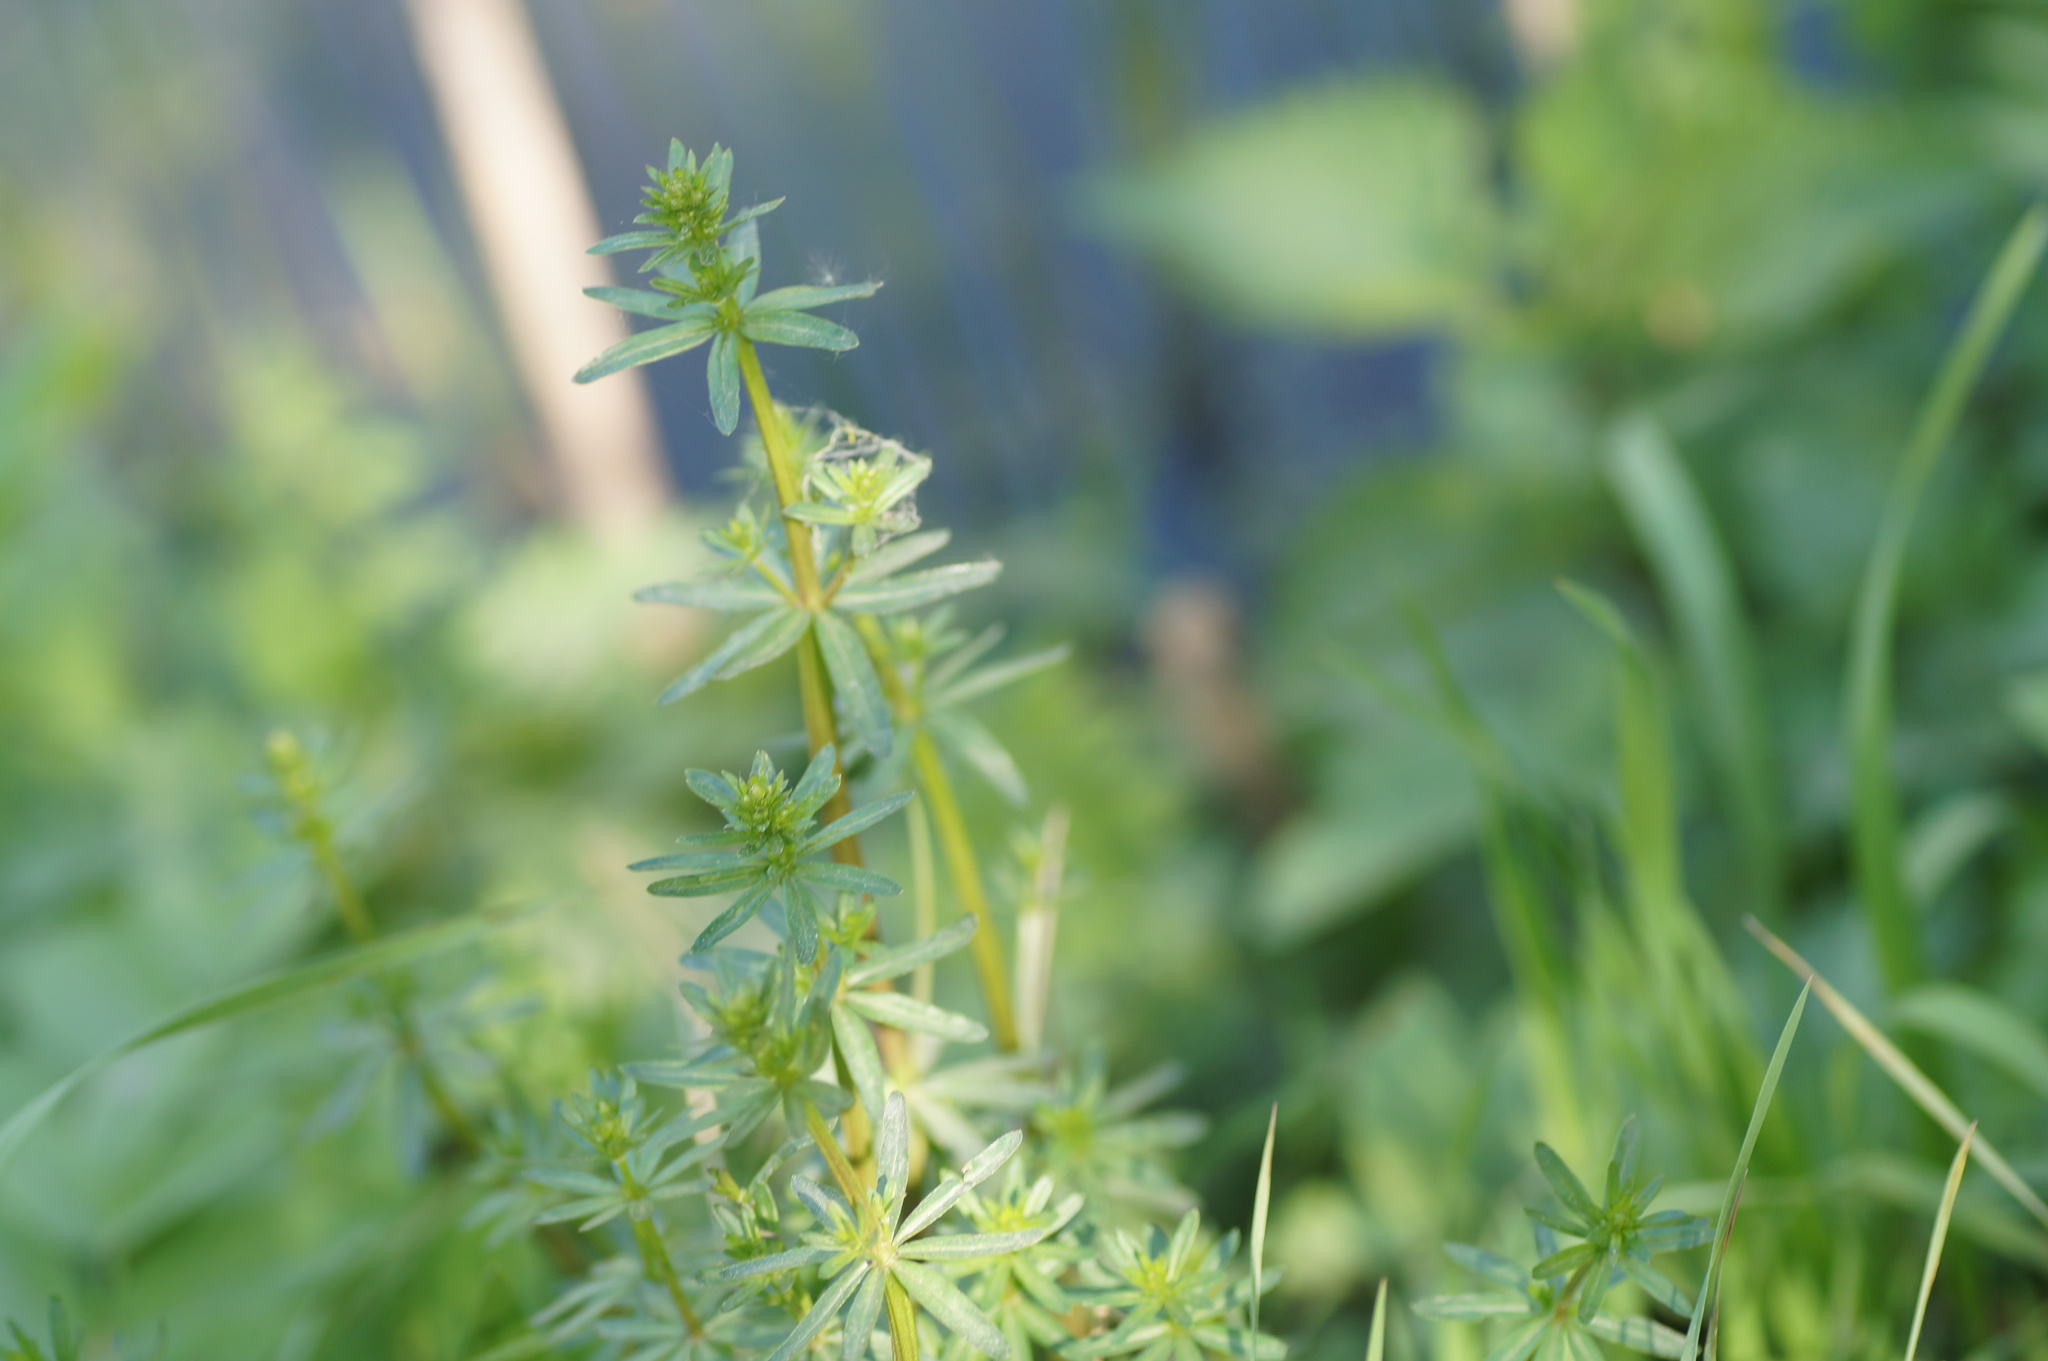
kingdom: Plantae
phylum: Tracheophyta
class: Magnoliopsida
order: Gentianales
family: Rubiaceae
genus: Galium
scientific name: Galium mollugo
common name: Hedge bedstraw
